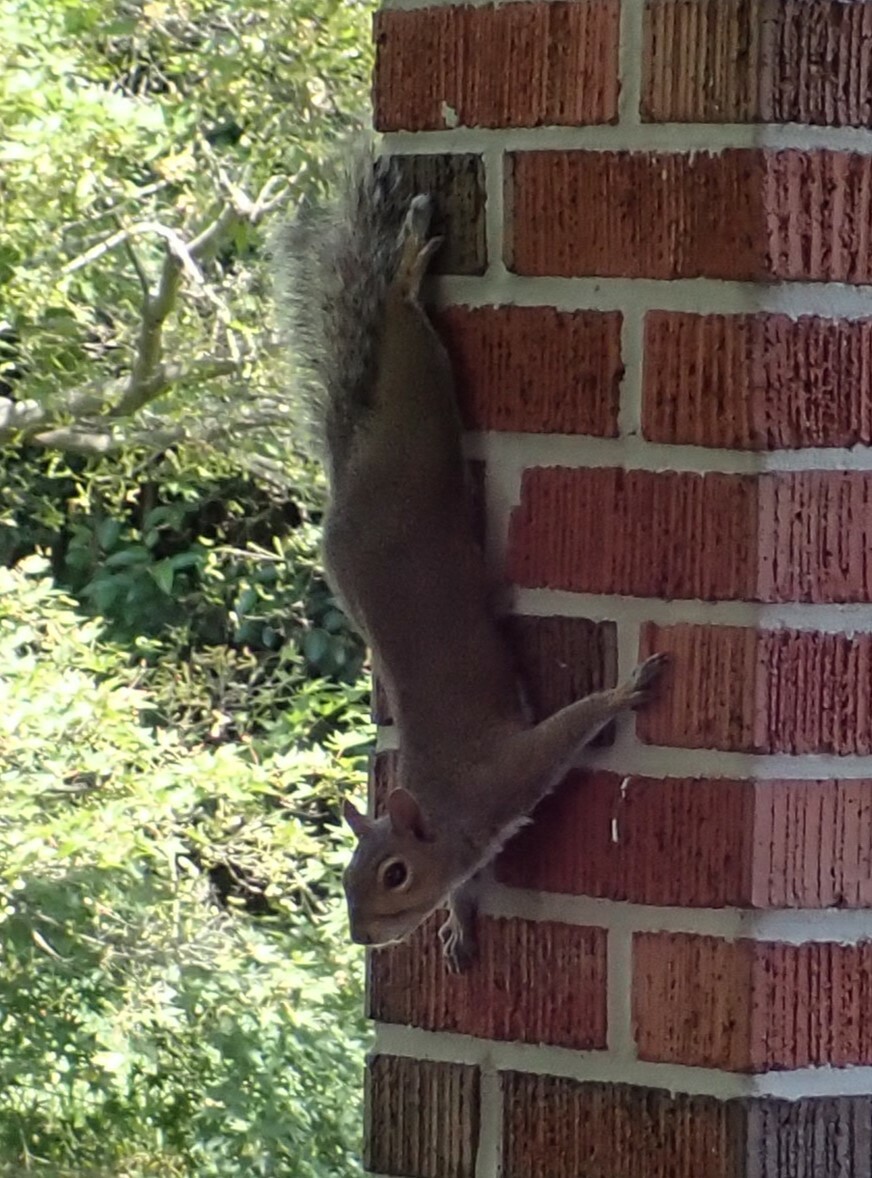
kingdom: Animalia
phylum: Chordata
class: Mammalia
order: Rodentia
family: Sciuridae
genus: Sciurus
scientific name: Sciurus carolinensis
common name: Eastern gray squirrel
